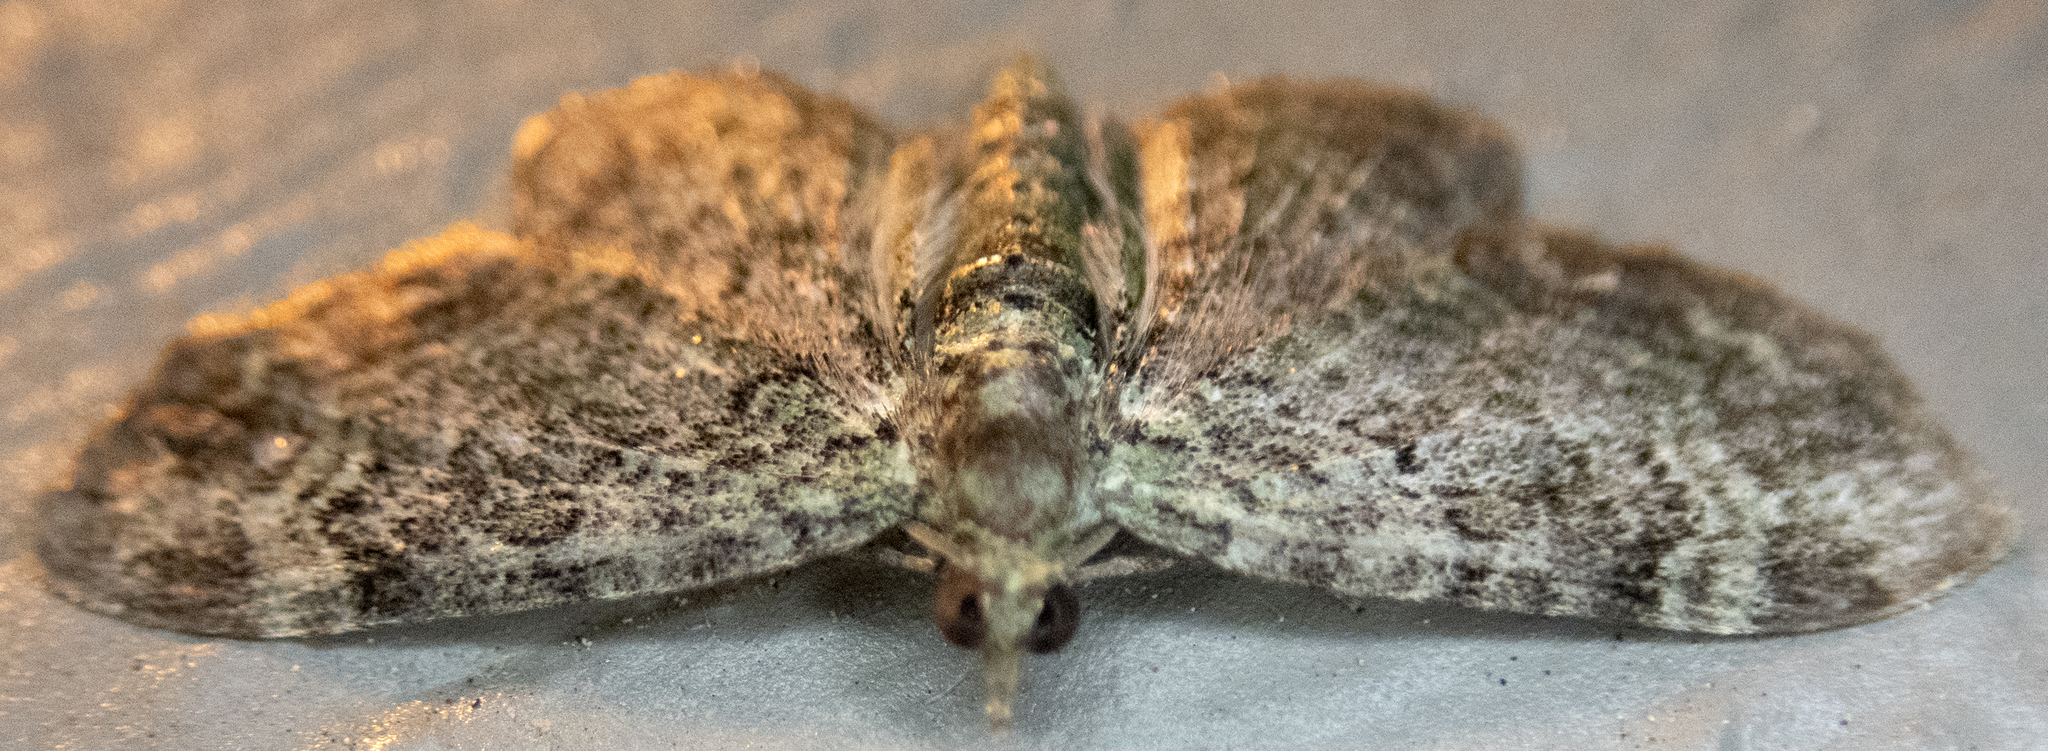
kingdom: Animalia
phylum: Arthropoda
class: Insecta
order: Lepidoptera
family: Geometridae
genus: Pasiphila
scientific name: Pasiphila rectangulata
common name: Green pug
